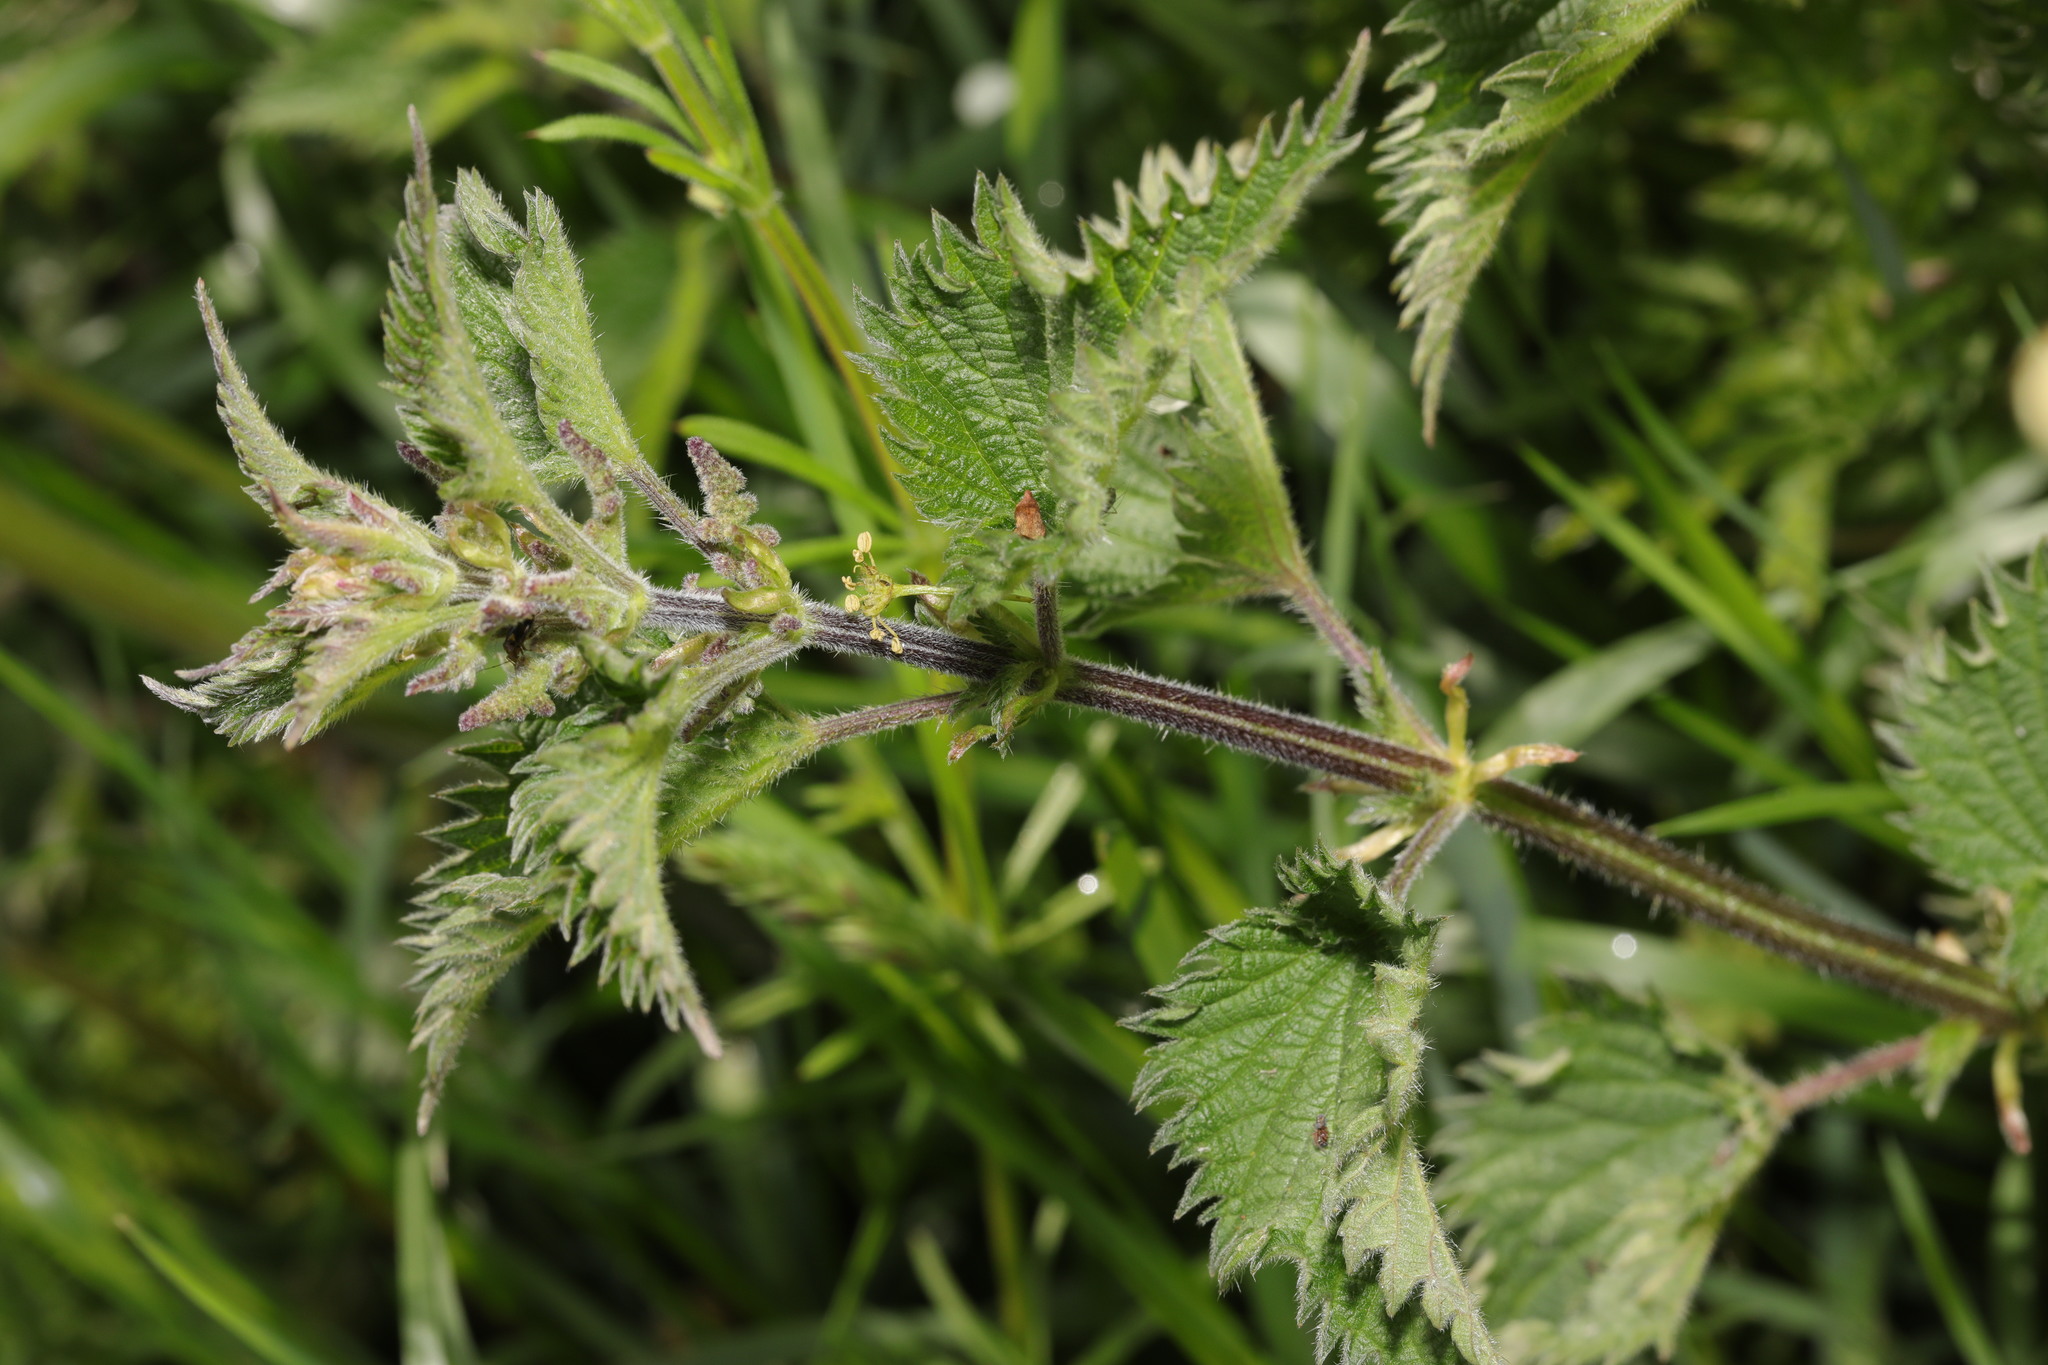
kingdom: Plantae
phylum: Tracheophyta
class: Magnoliopsida
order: Rosales
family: Urticaceae
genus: Urtica
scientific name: Urtica dioica
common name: Common nettle
